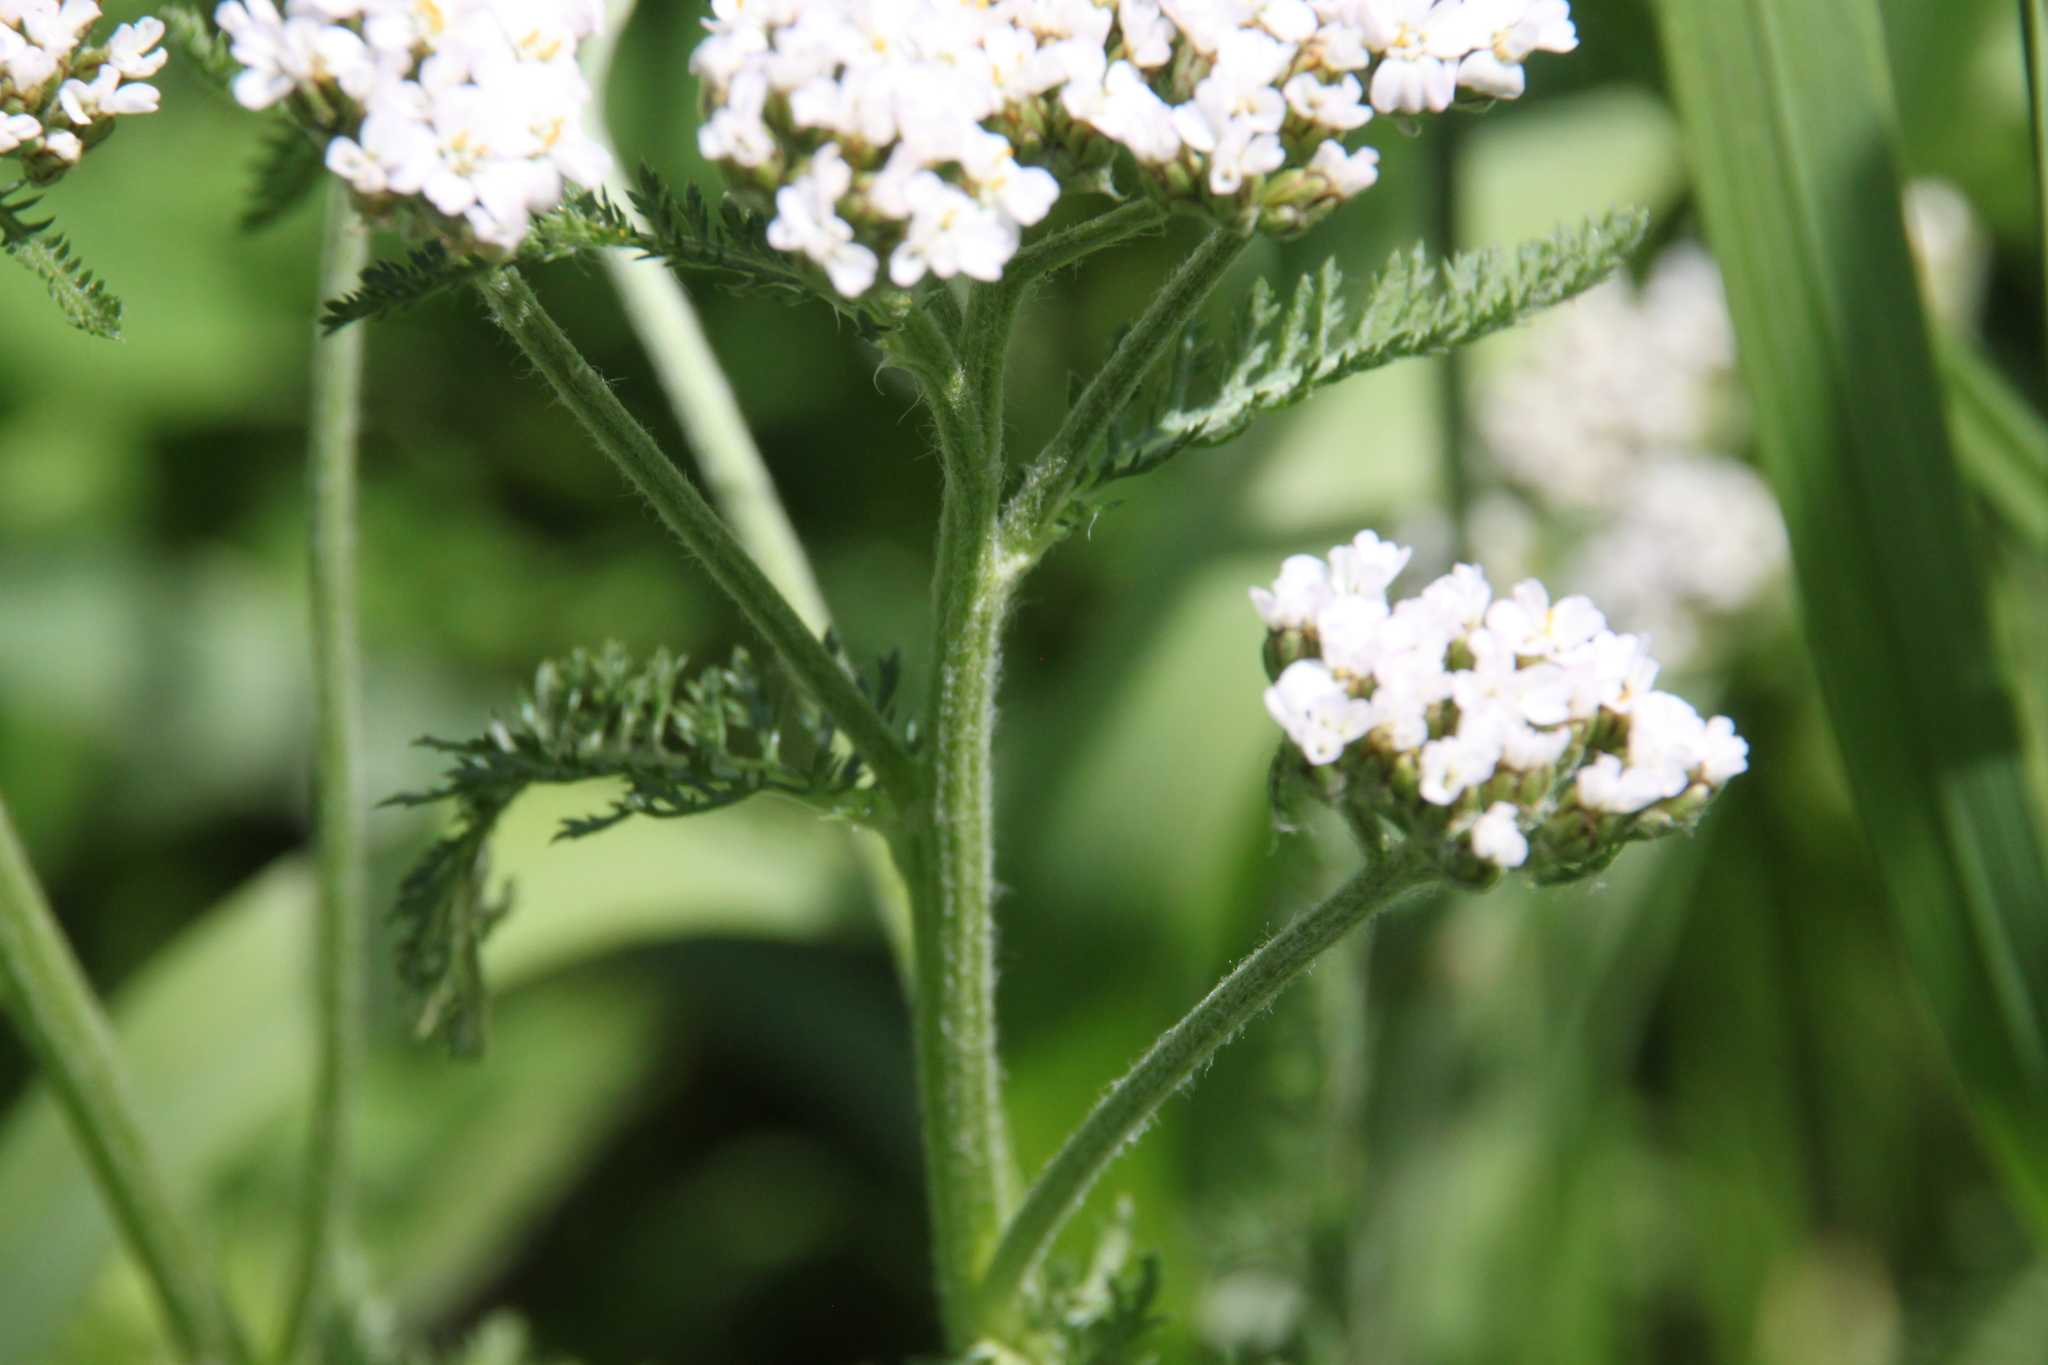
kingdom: Plantae
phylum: Tracheophyta
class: Magnoliopsida
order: Asterales
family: Asteraceae
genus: Achillea
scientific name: Achillea millefolium
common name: Yarrow
